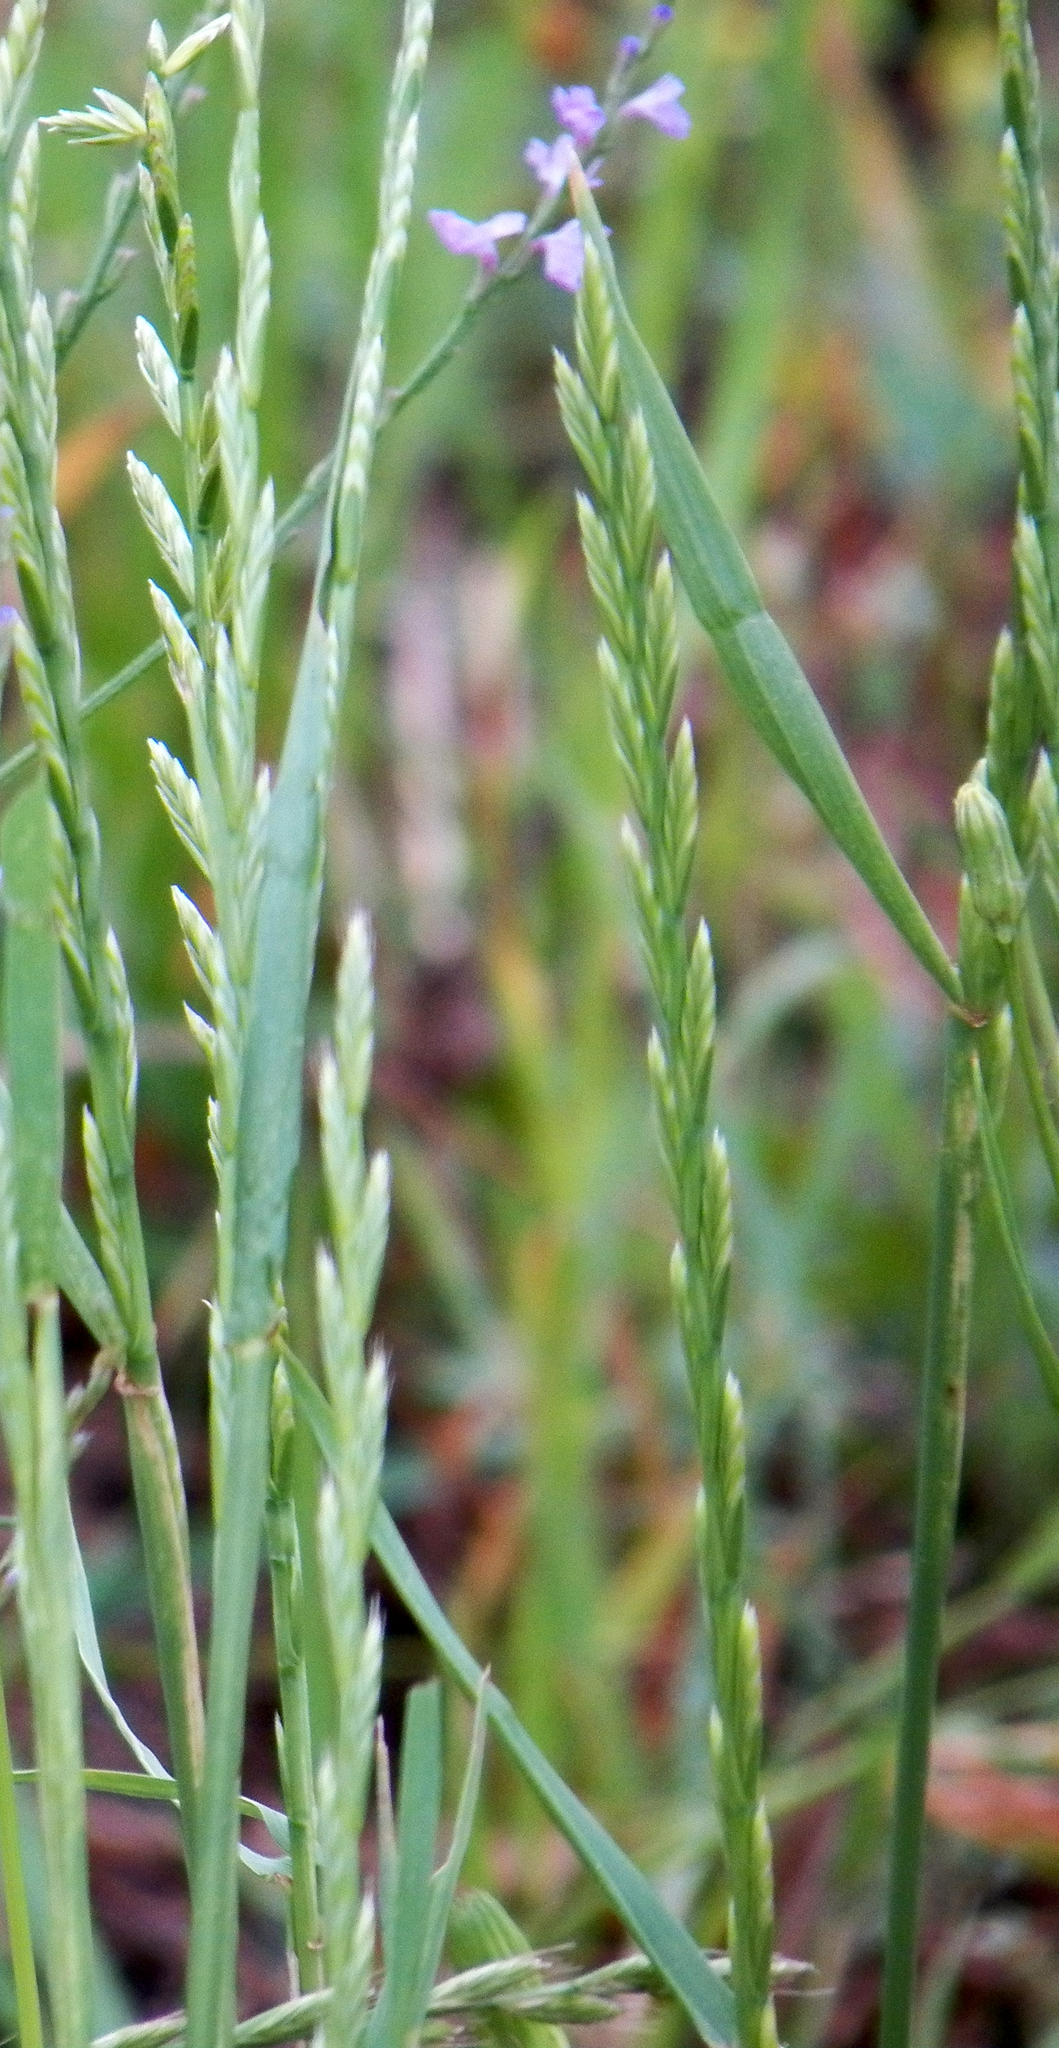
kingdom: Plantae
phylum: Tracheophyta
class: Liliopsida
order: Poales
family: Poaceae
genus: Lolium
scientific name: Lolium perenne
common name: Perennial ryegrass
